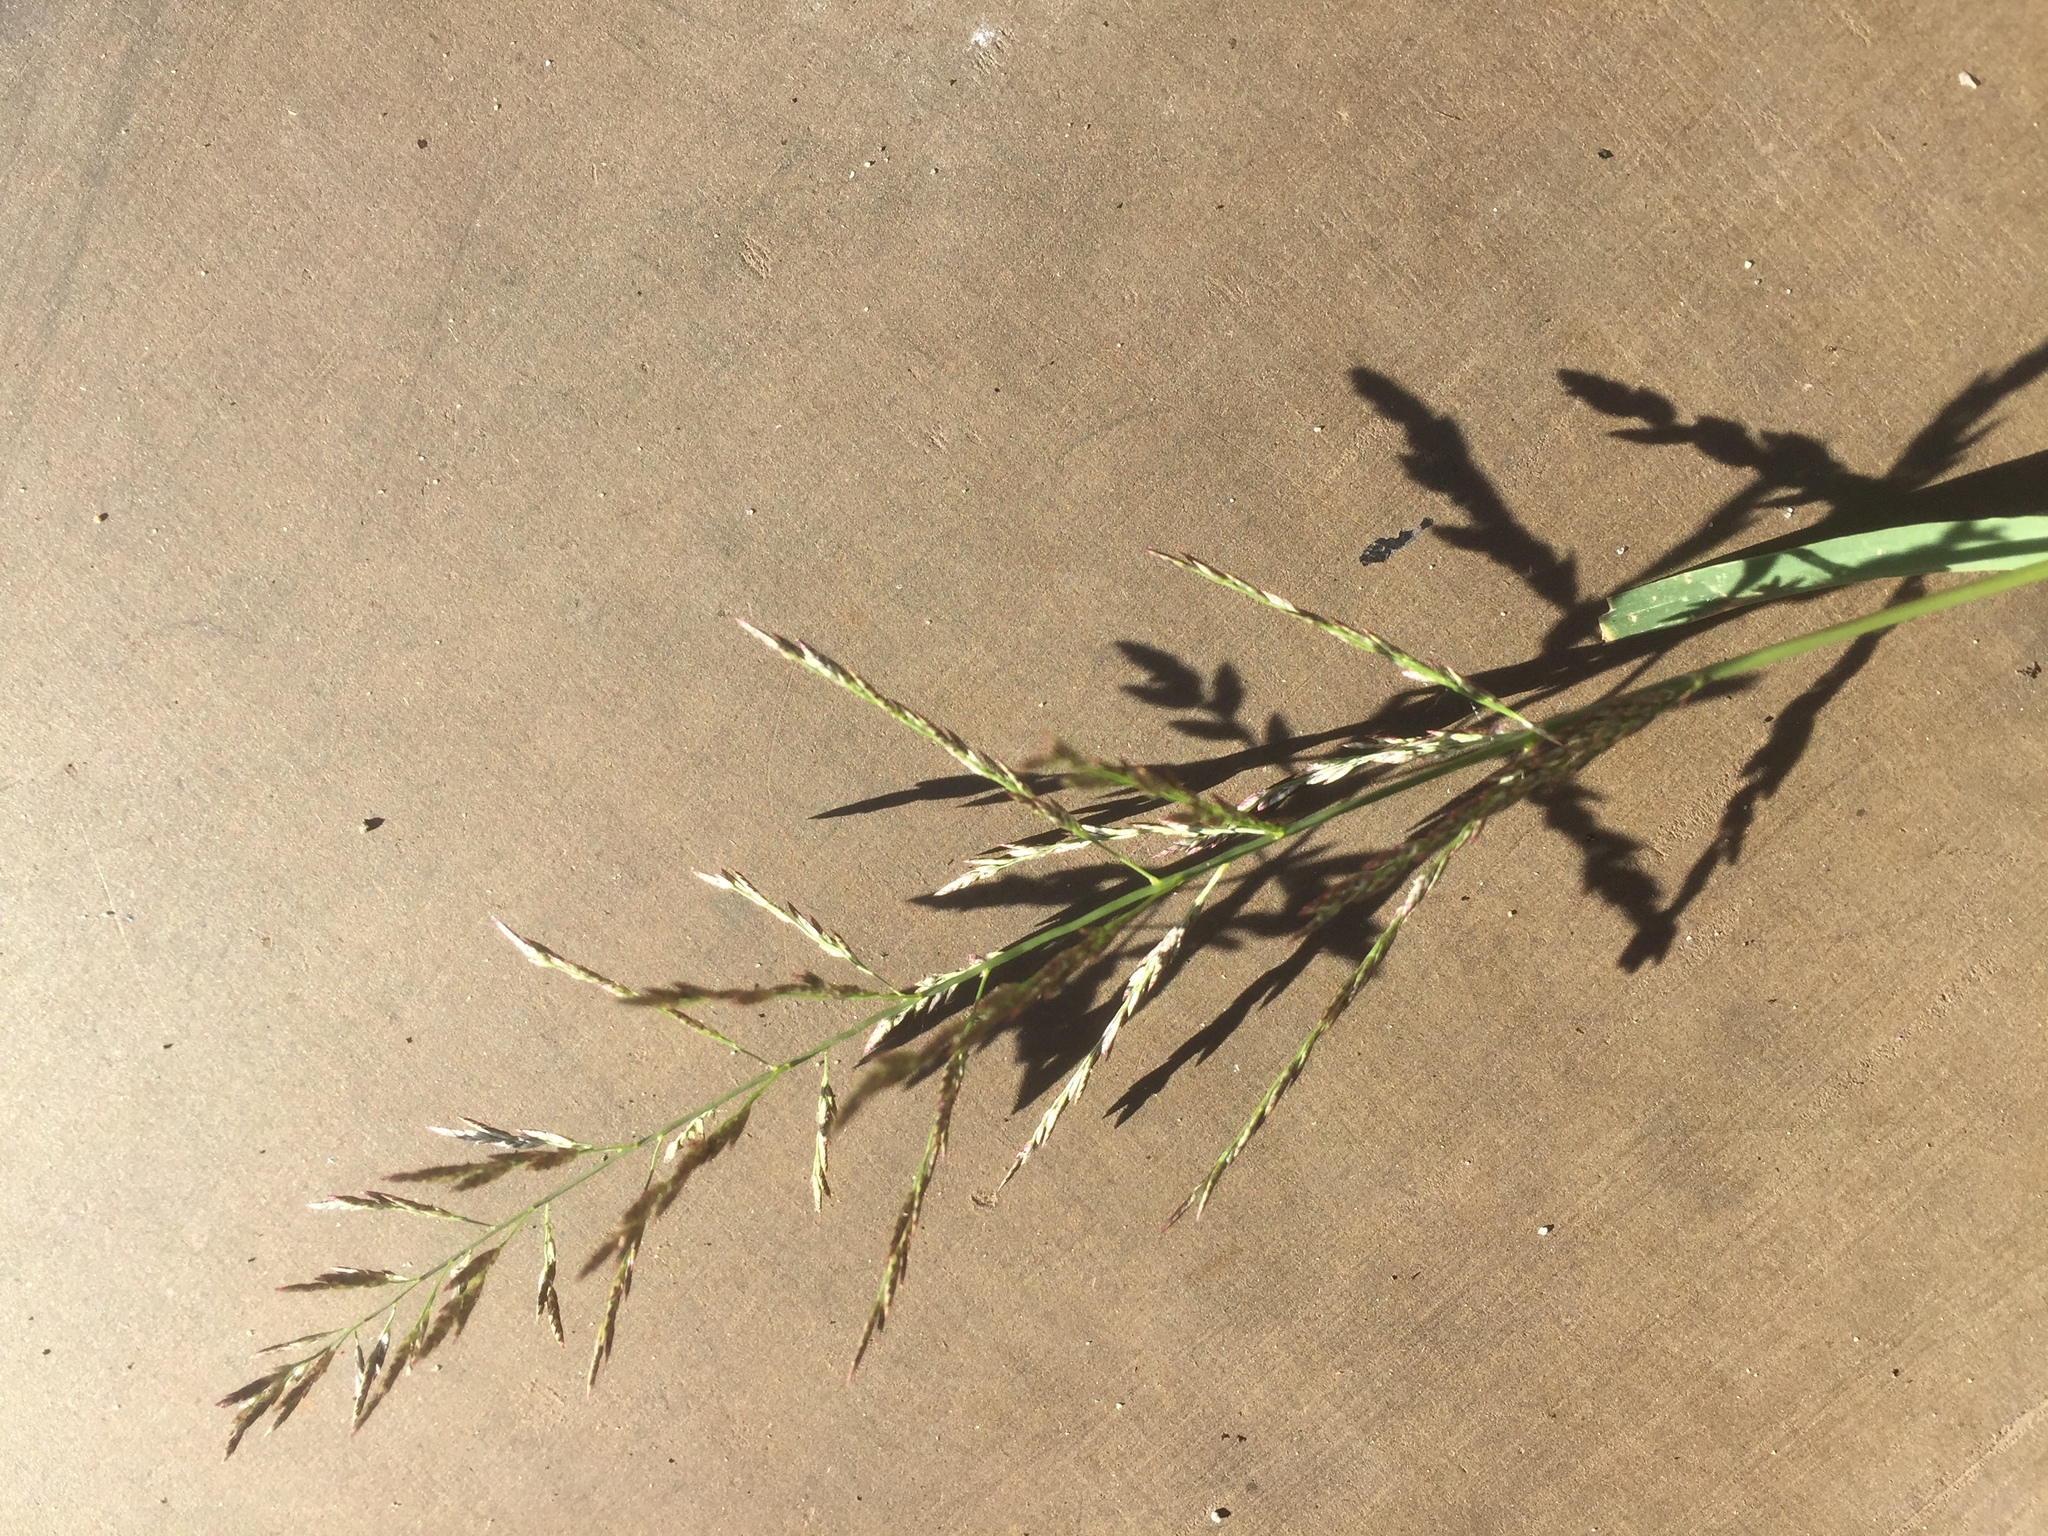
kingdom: Plantae
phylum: Tracheophyta
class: Liliopsida
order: Poales
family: Poaceae
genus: Eragrostis
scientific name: Eragrostis pilosa
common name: Indian lovegrass
